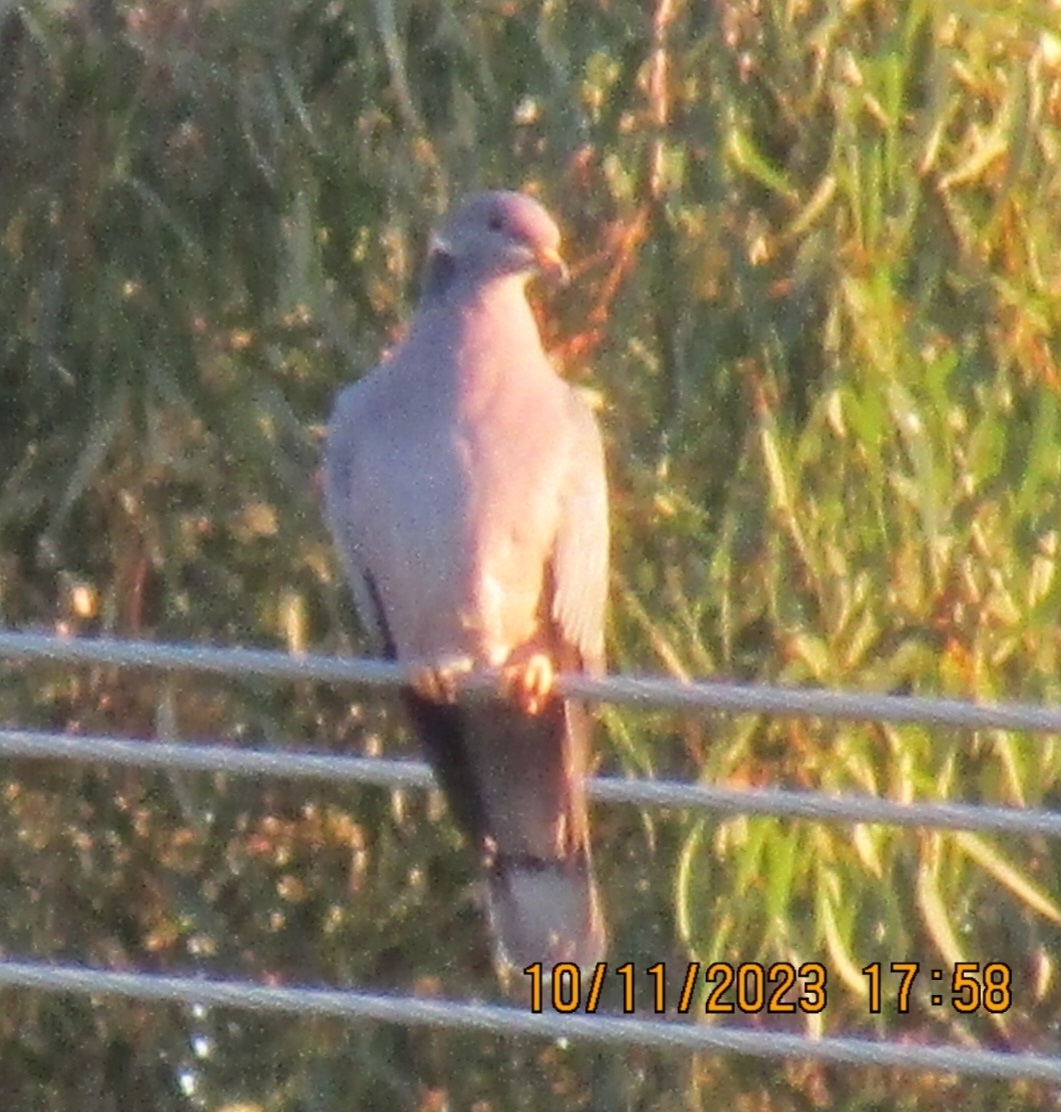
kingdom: Animalia
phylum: Chordata
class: Aves
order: Columbiformes
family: Columbidae
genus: Patagioenas
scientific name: Patagioenas fasciata
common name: Band-tailed pigeon
